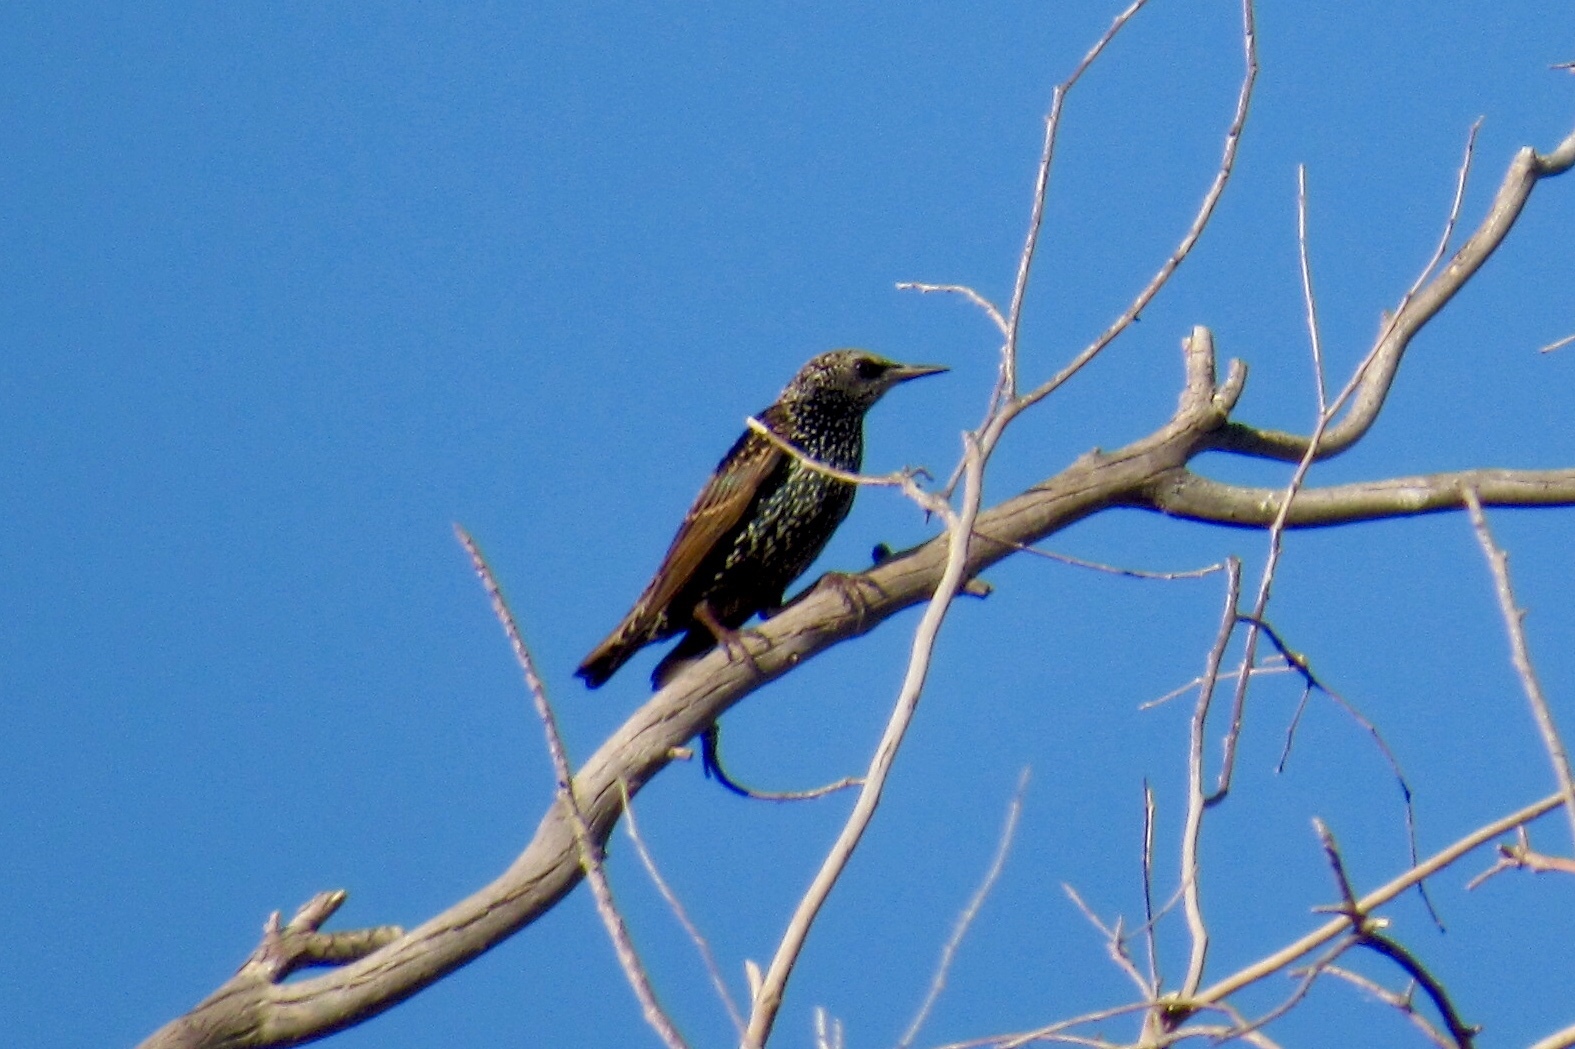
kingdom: Animalia
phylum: Chordata
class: Aves
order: Passeriformes
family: Sturnidae
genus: Sturnus
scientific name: Sturnus vulgaris
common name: Common starling
